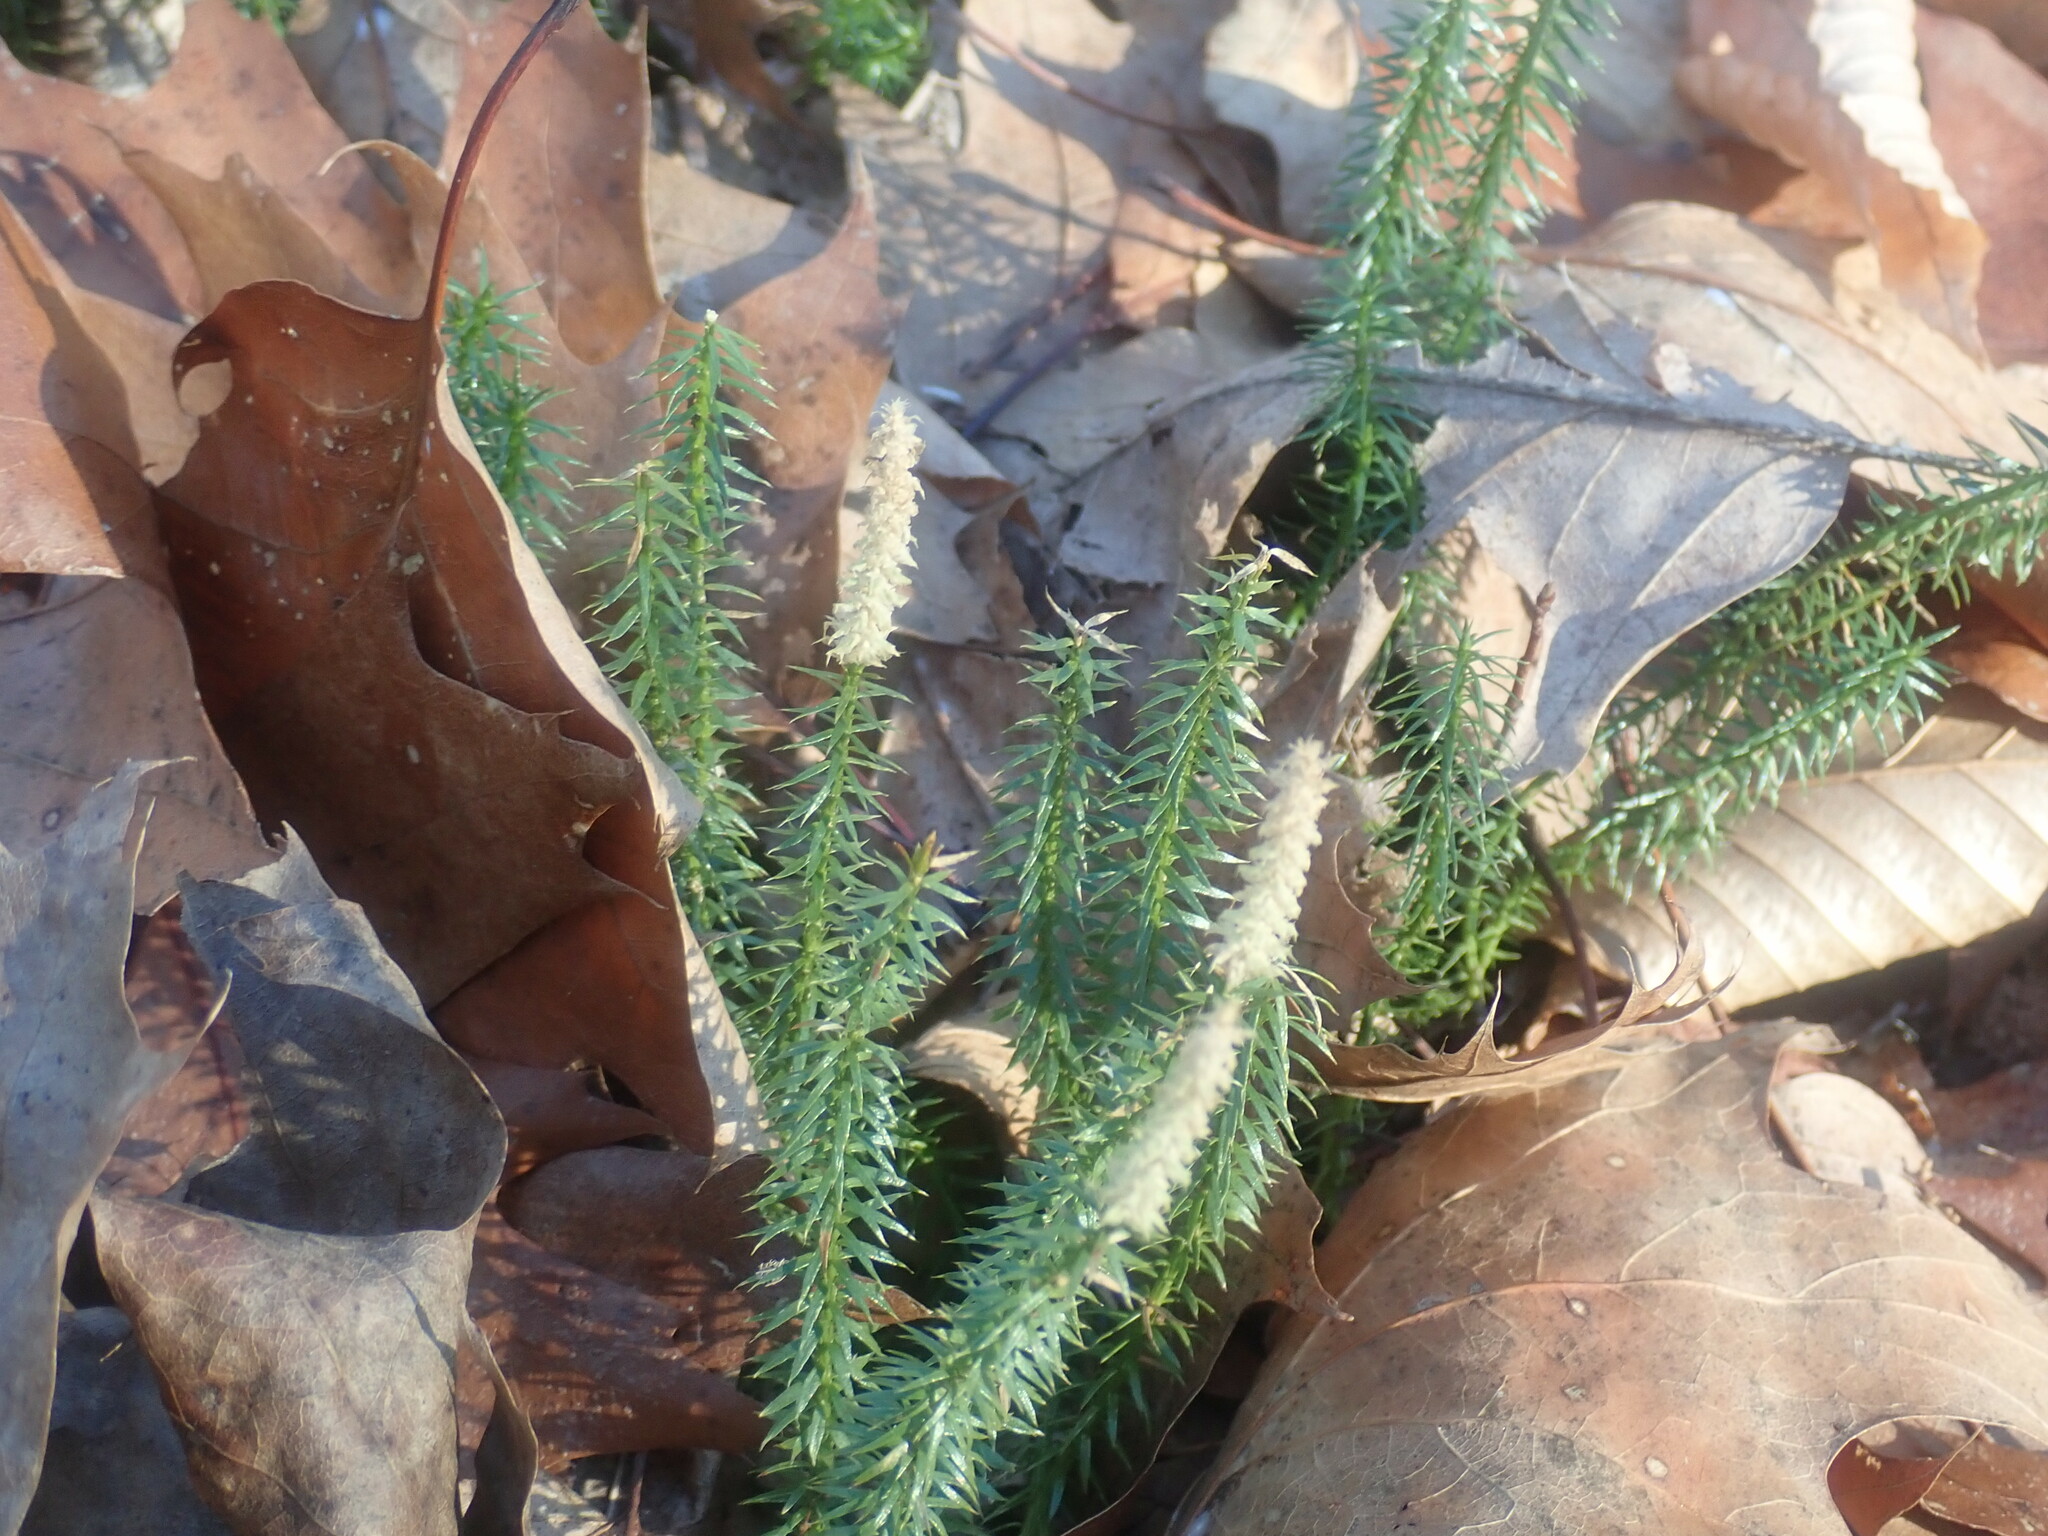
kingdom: Plantae
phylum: Tracheophyta
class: Lycopodiopsida
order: Lycopodiales
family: Lycopodiaceae
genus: Spinulum
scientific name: Spinulum annotinum
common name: Interrupted club-moss
